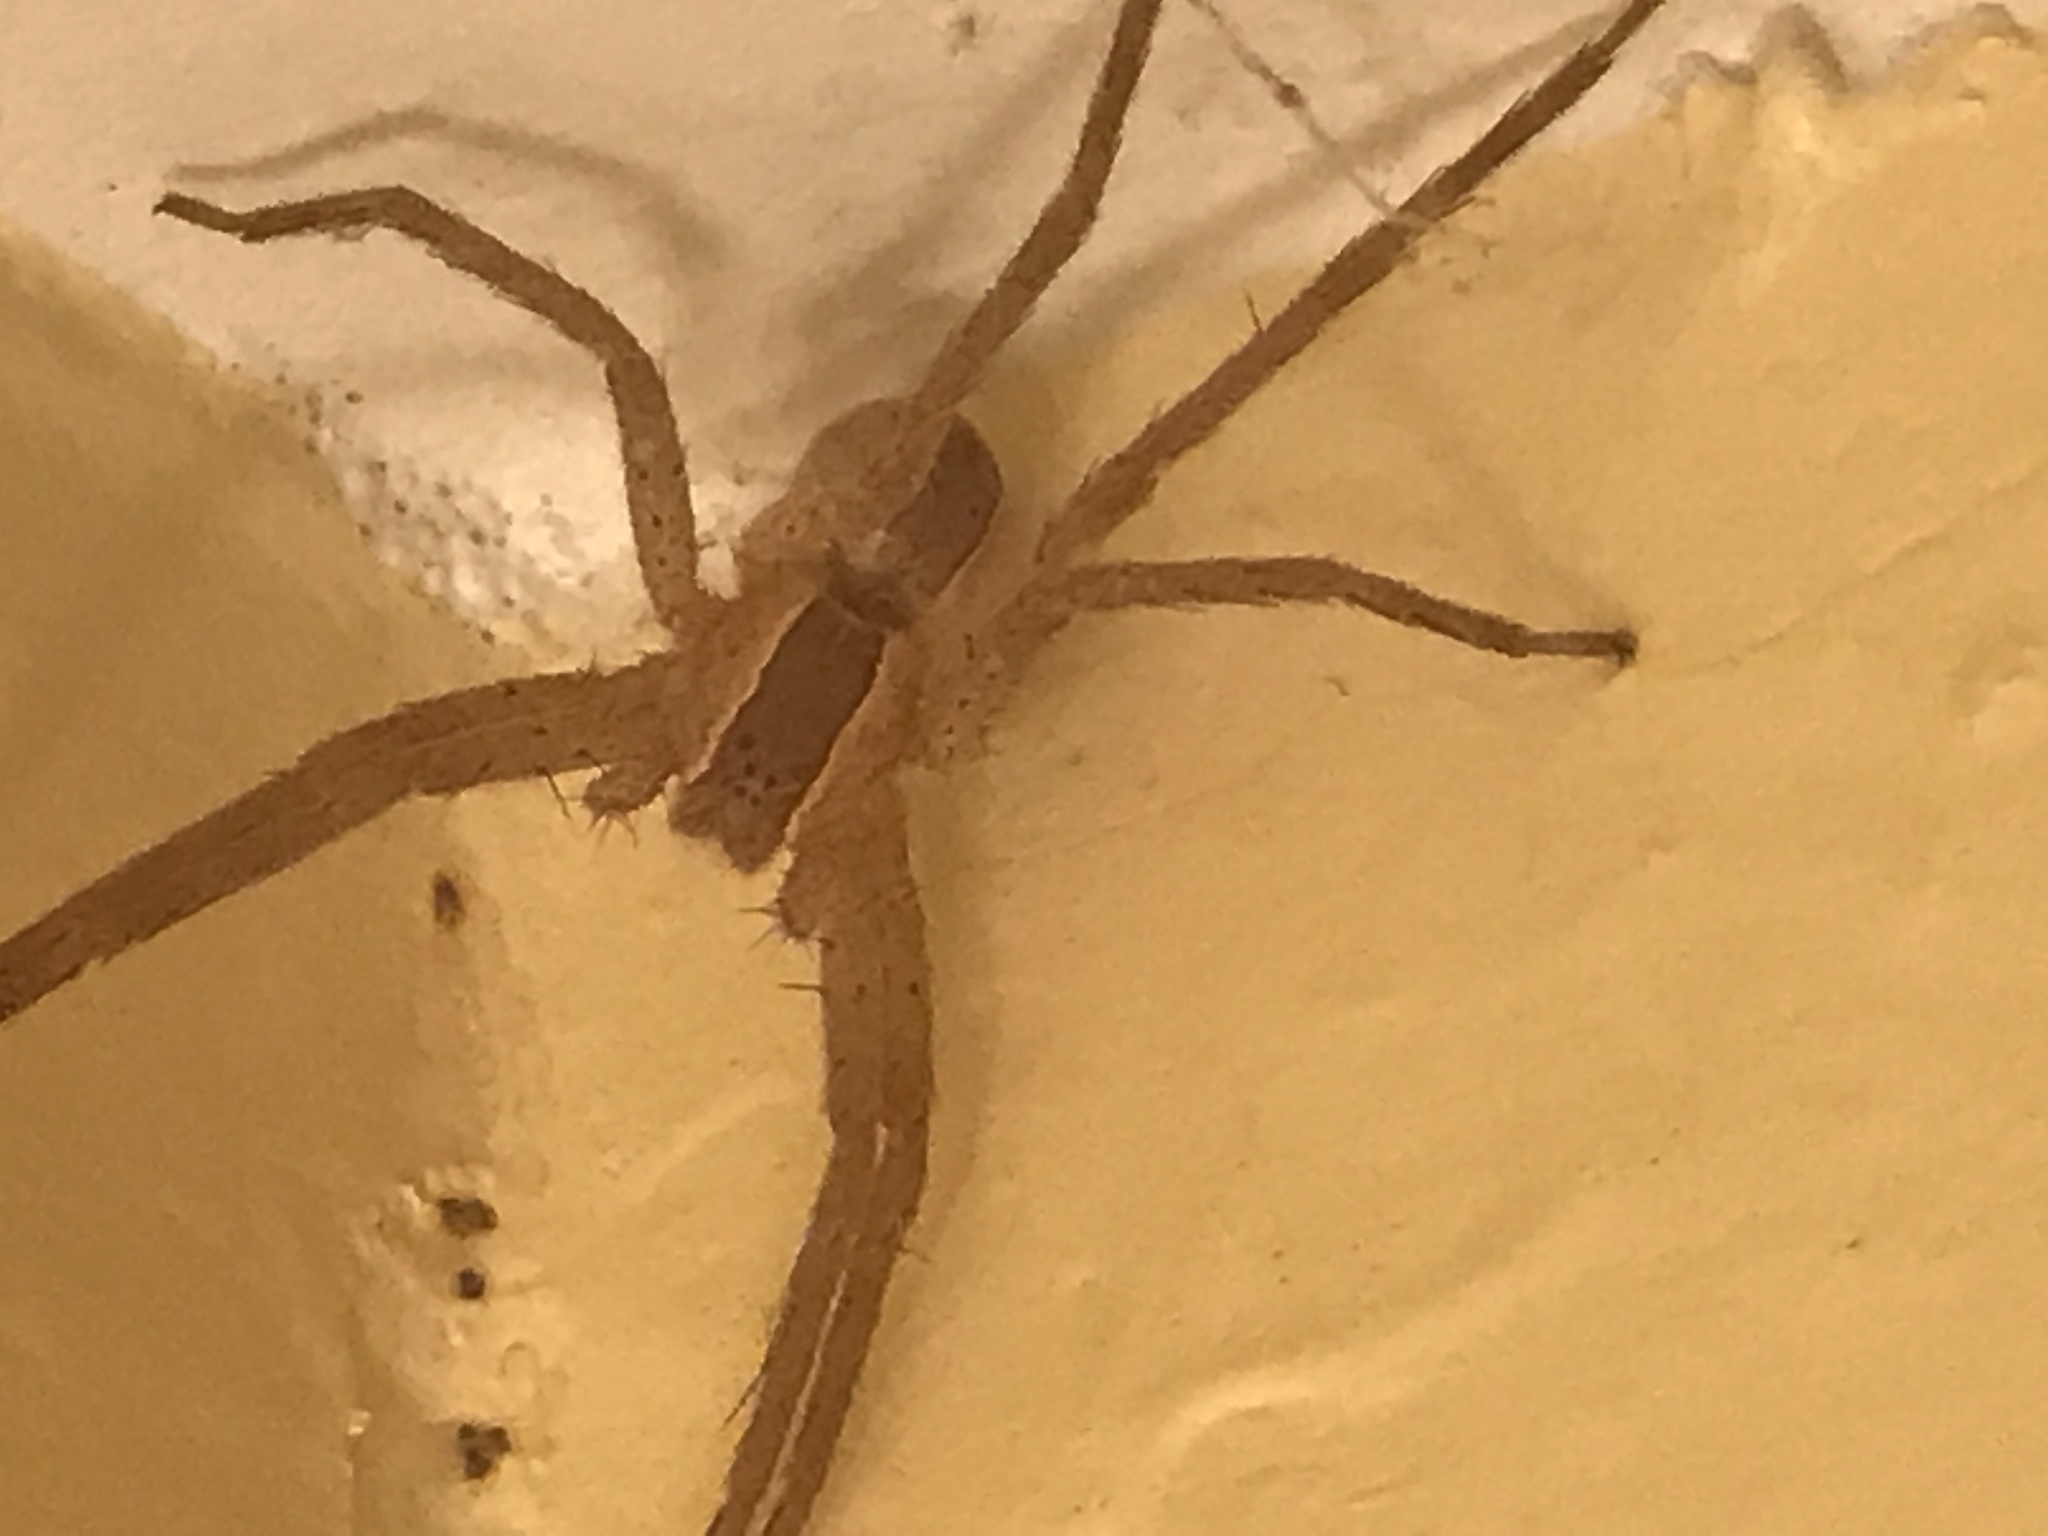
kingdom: Animalia
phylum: Arthropoda
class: Arachnida
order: Araneae
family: Pisauridae
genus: Pisaurina
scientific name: Pisaurina mira
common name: American nursery web spider
